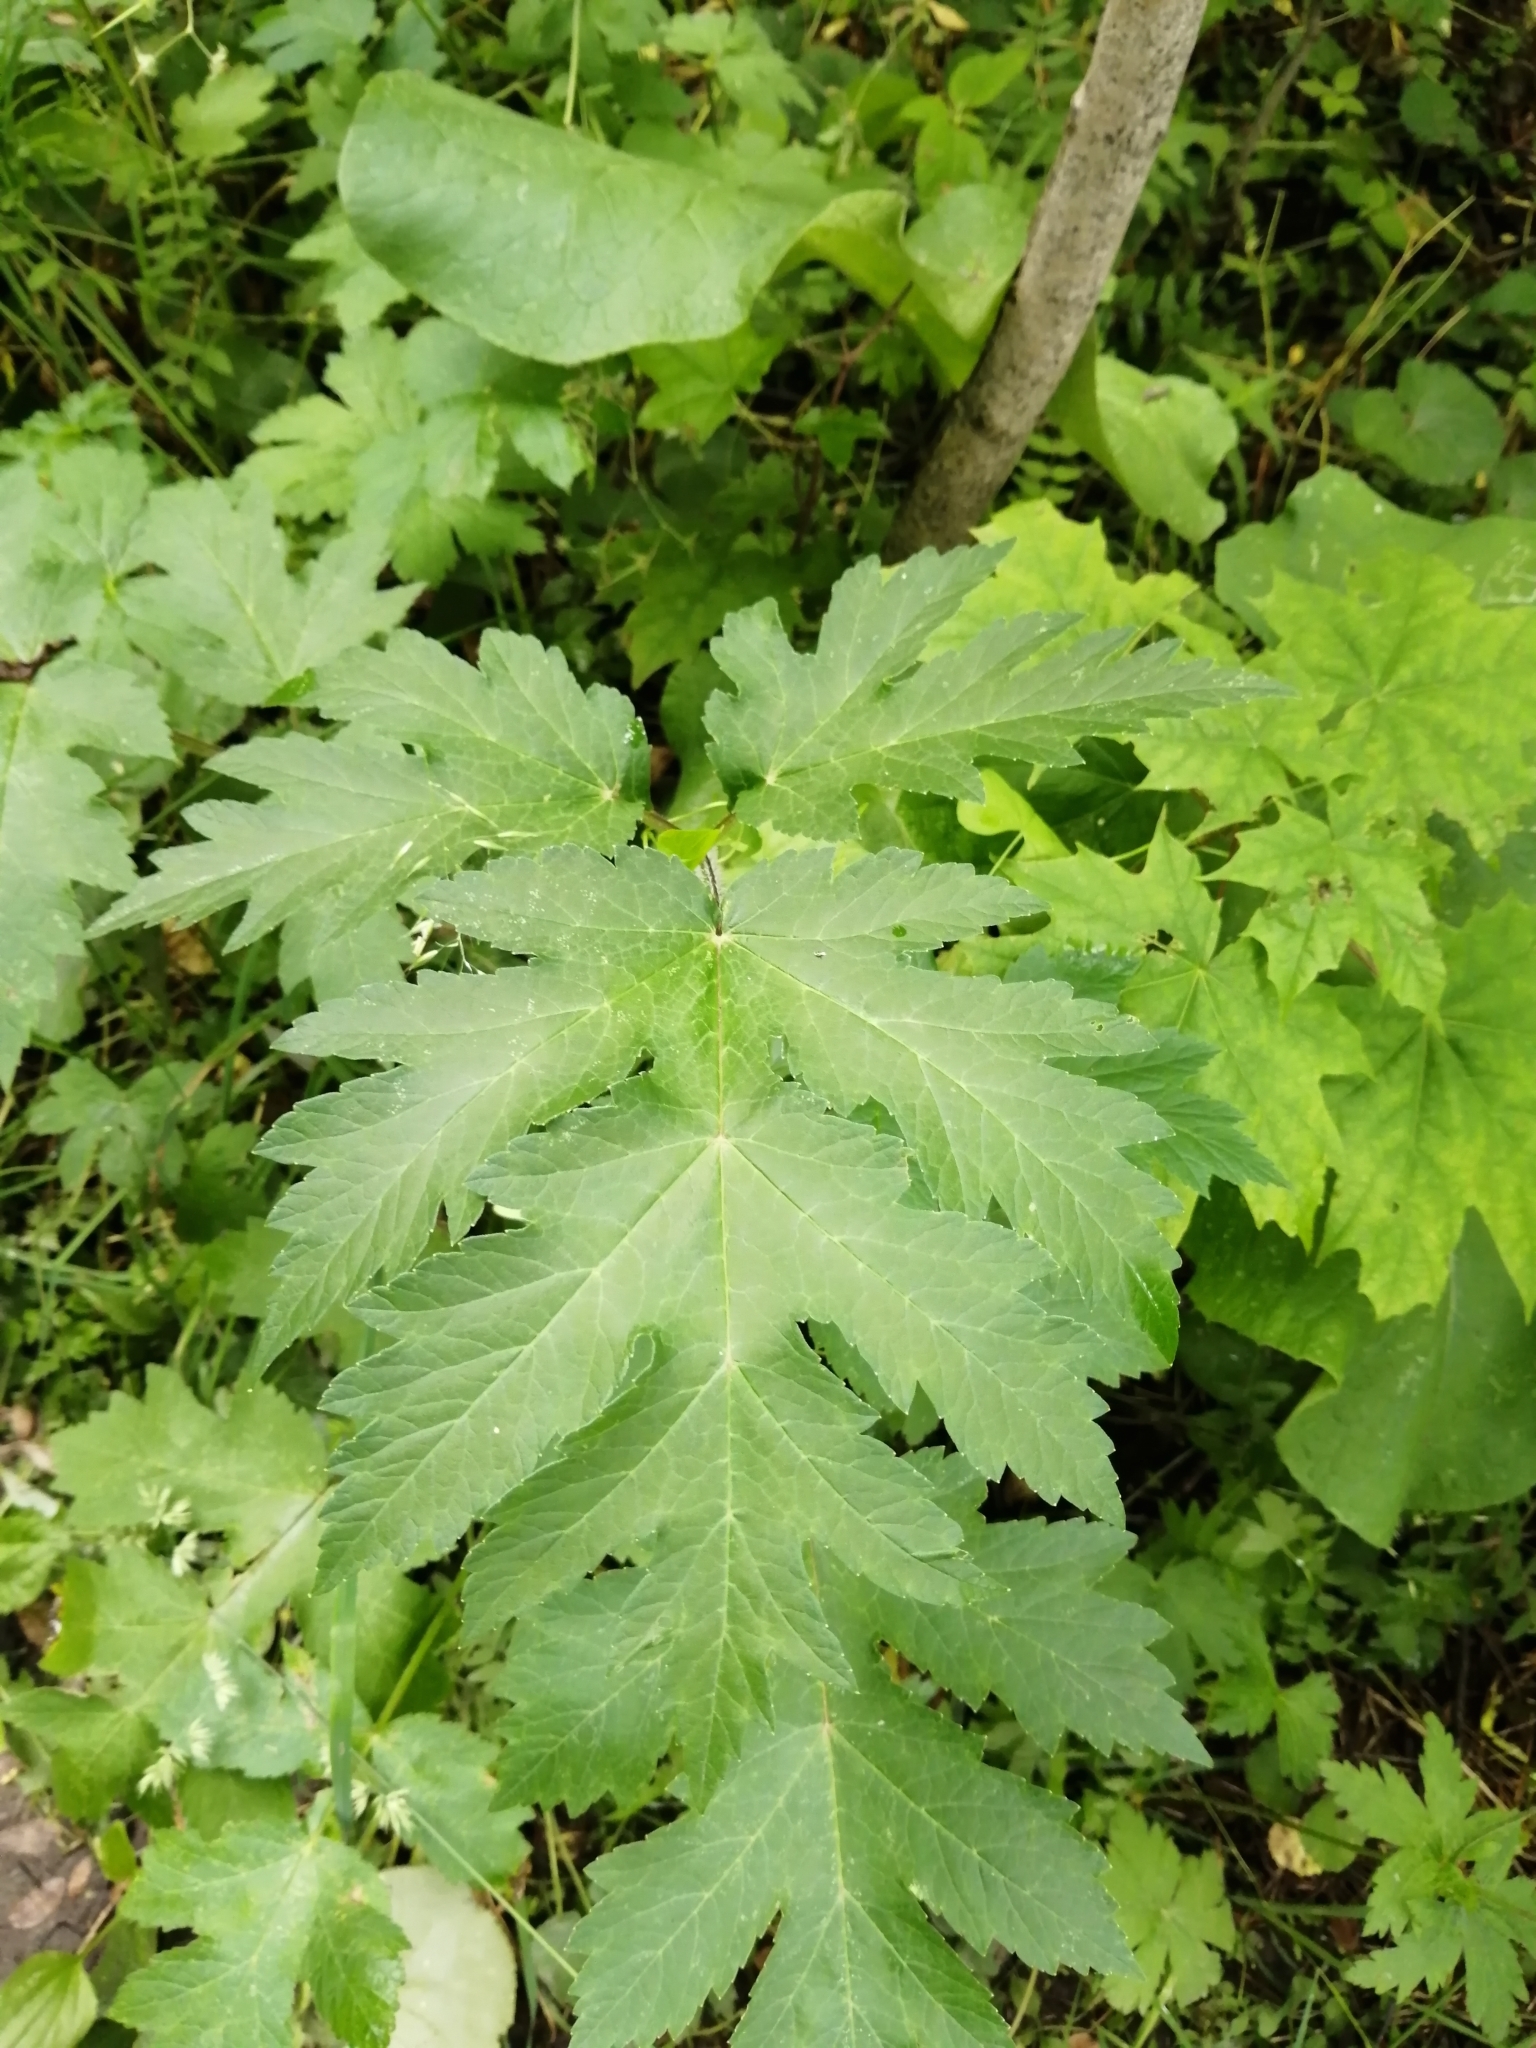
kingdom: Plantae
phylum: Tracheophyta
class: Magnoliopsida
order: Apiales
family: Apiaceae
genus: Heracleum
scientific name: Heracleum sphondylium
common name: Hogweed
